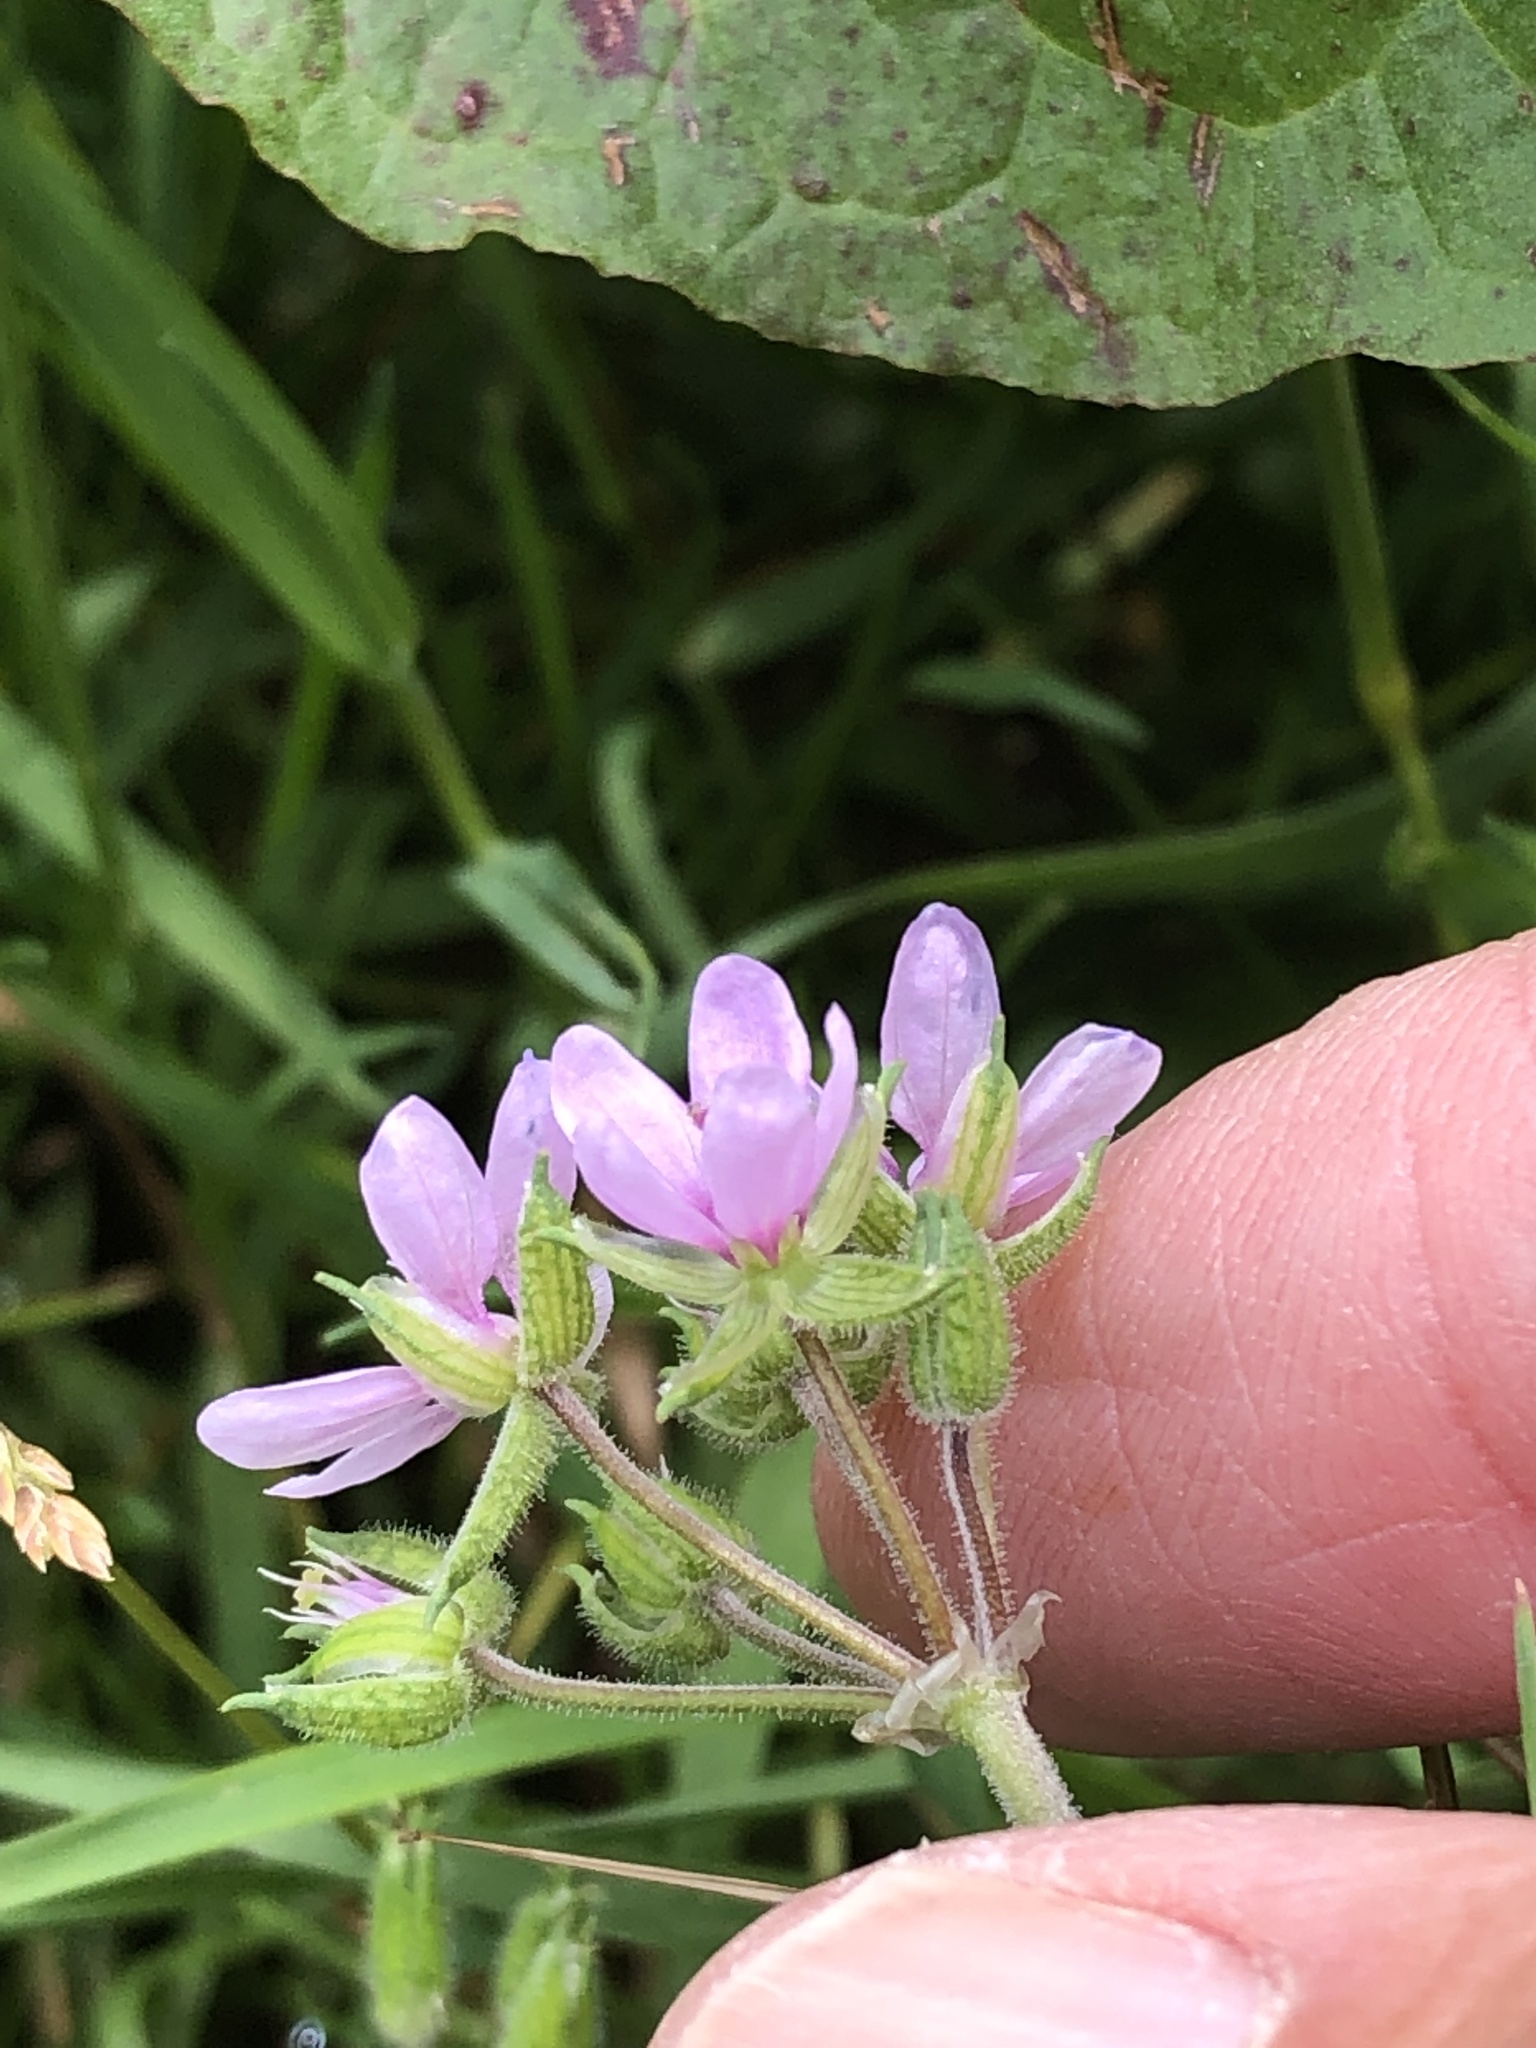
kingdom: Plantae
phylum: Tracheophyta
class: Magnoliopsida
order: Geraniales
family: Geraniaceae
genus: Erodium
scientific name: Erodium moschatum
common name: Musk stork's-bill
